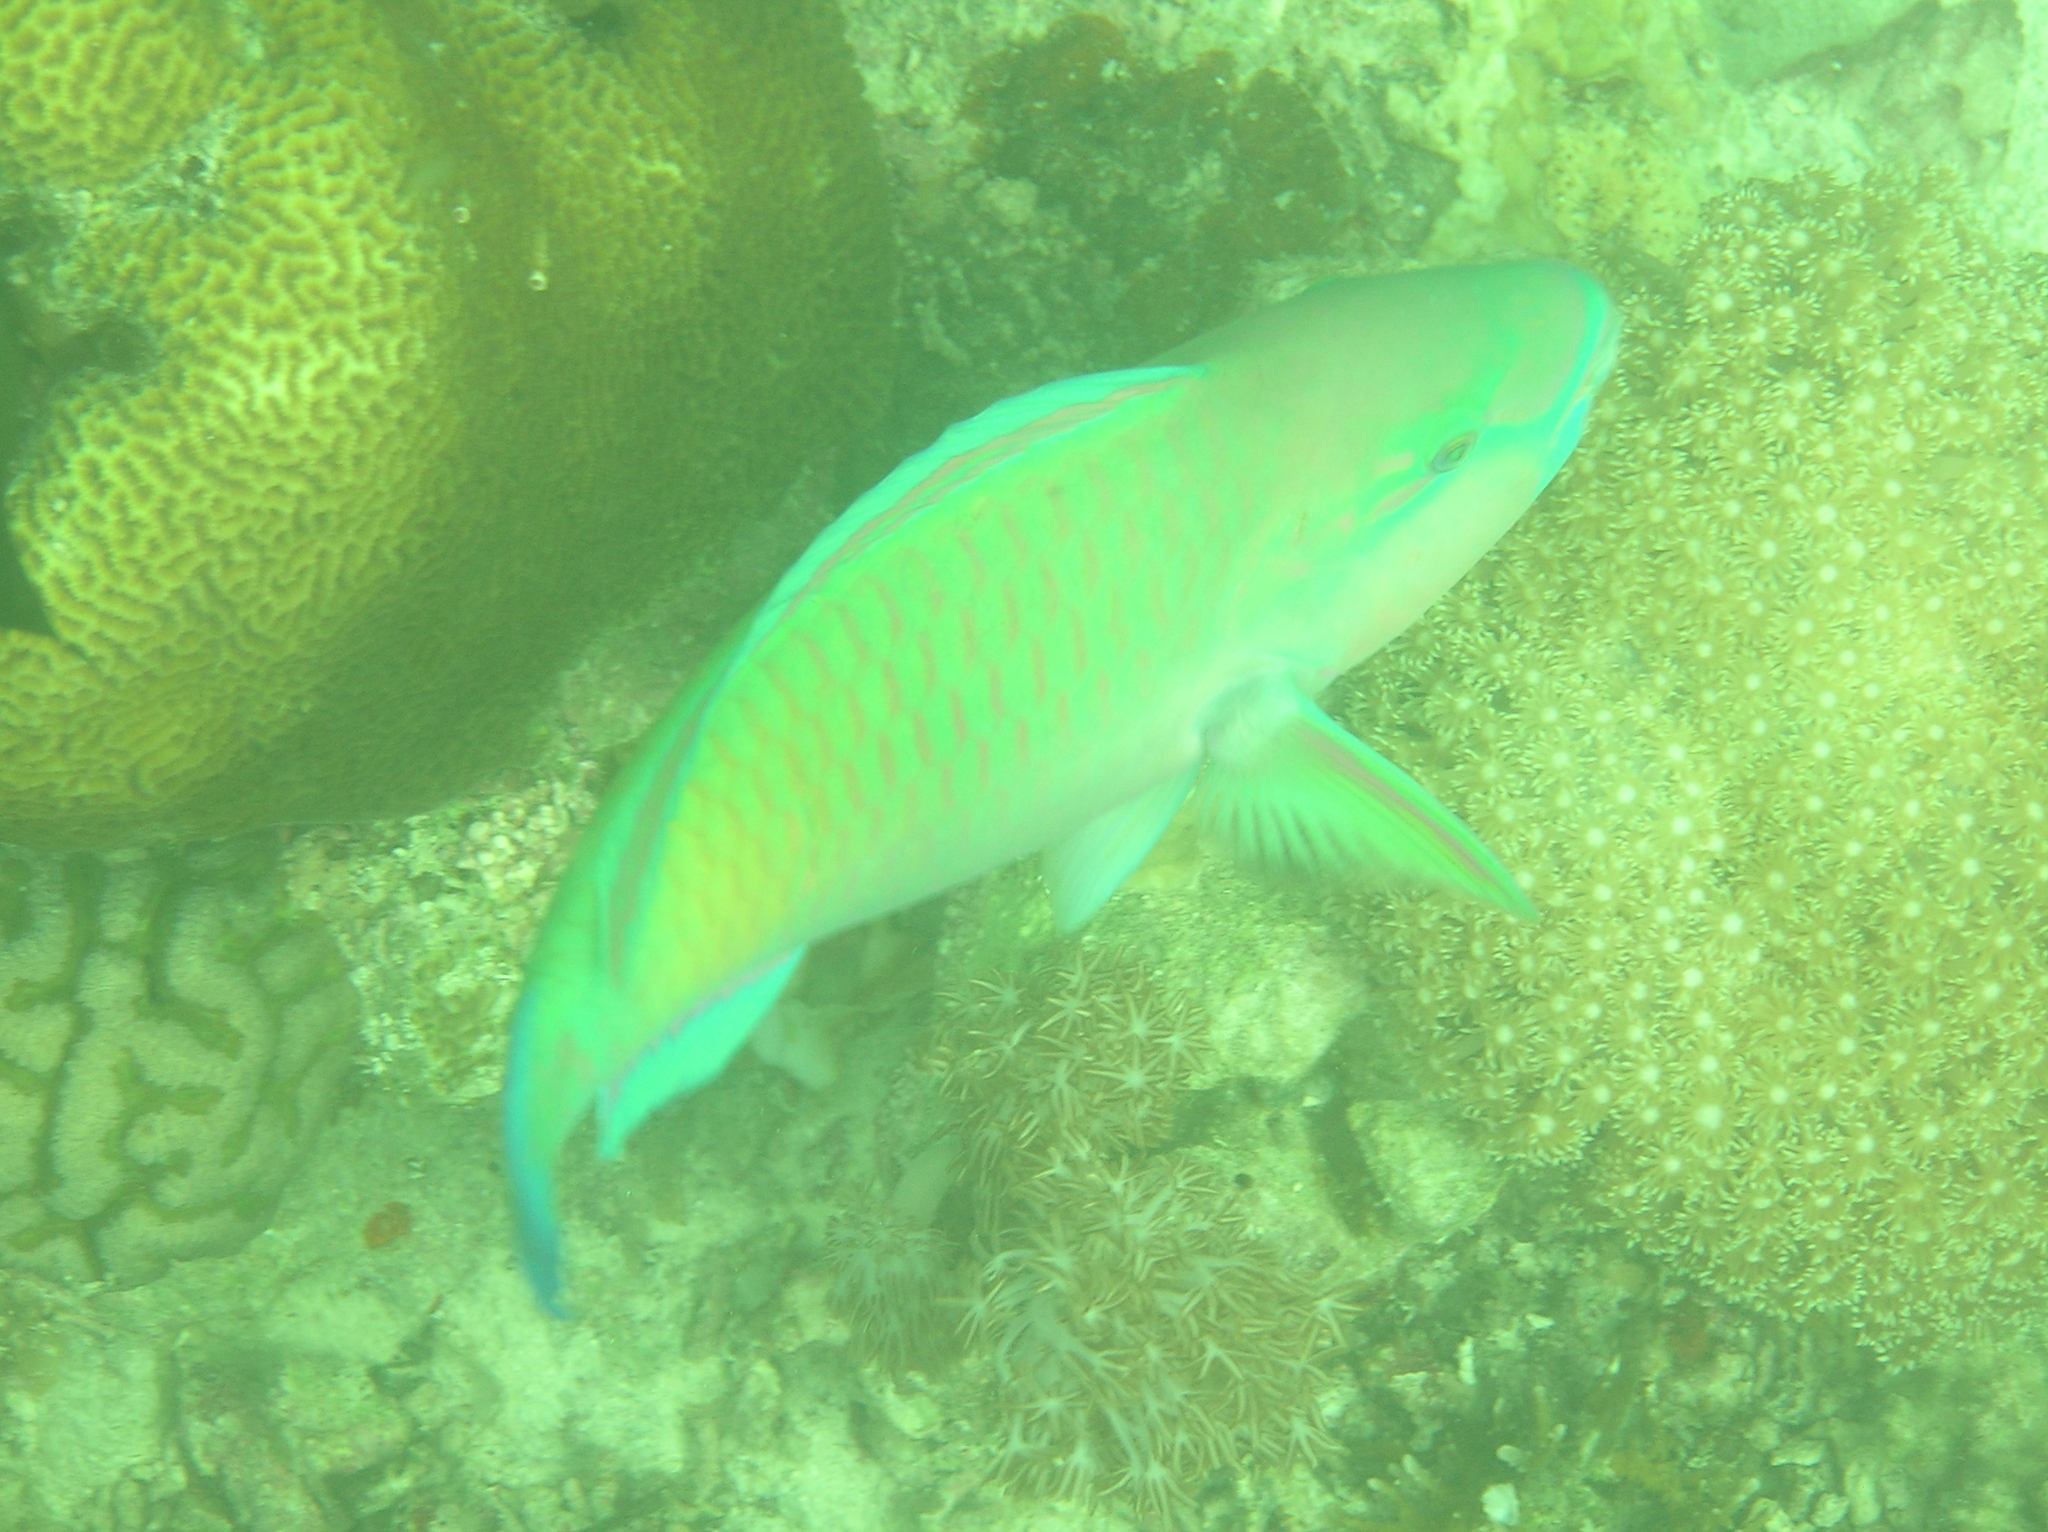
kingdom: Animalia
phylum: Chordata
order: Perciformes
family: Scaridae
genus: Chlorurus
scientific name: Chlorurus spilurus
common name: Bullethead parrotfish
